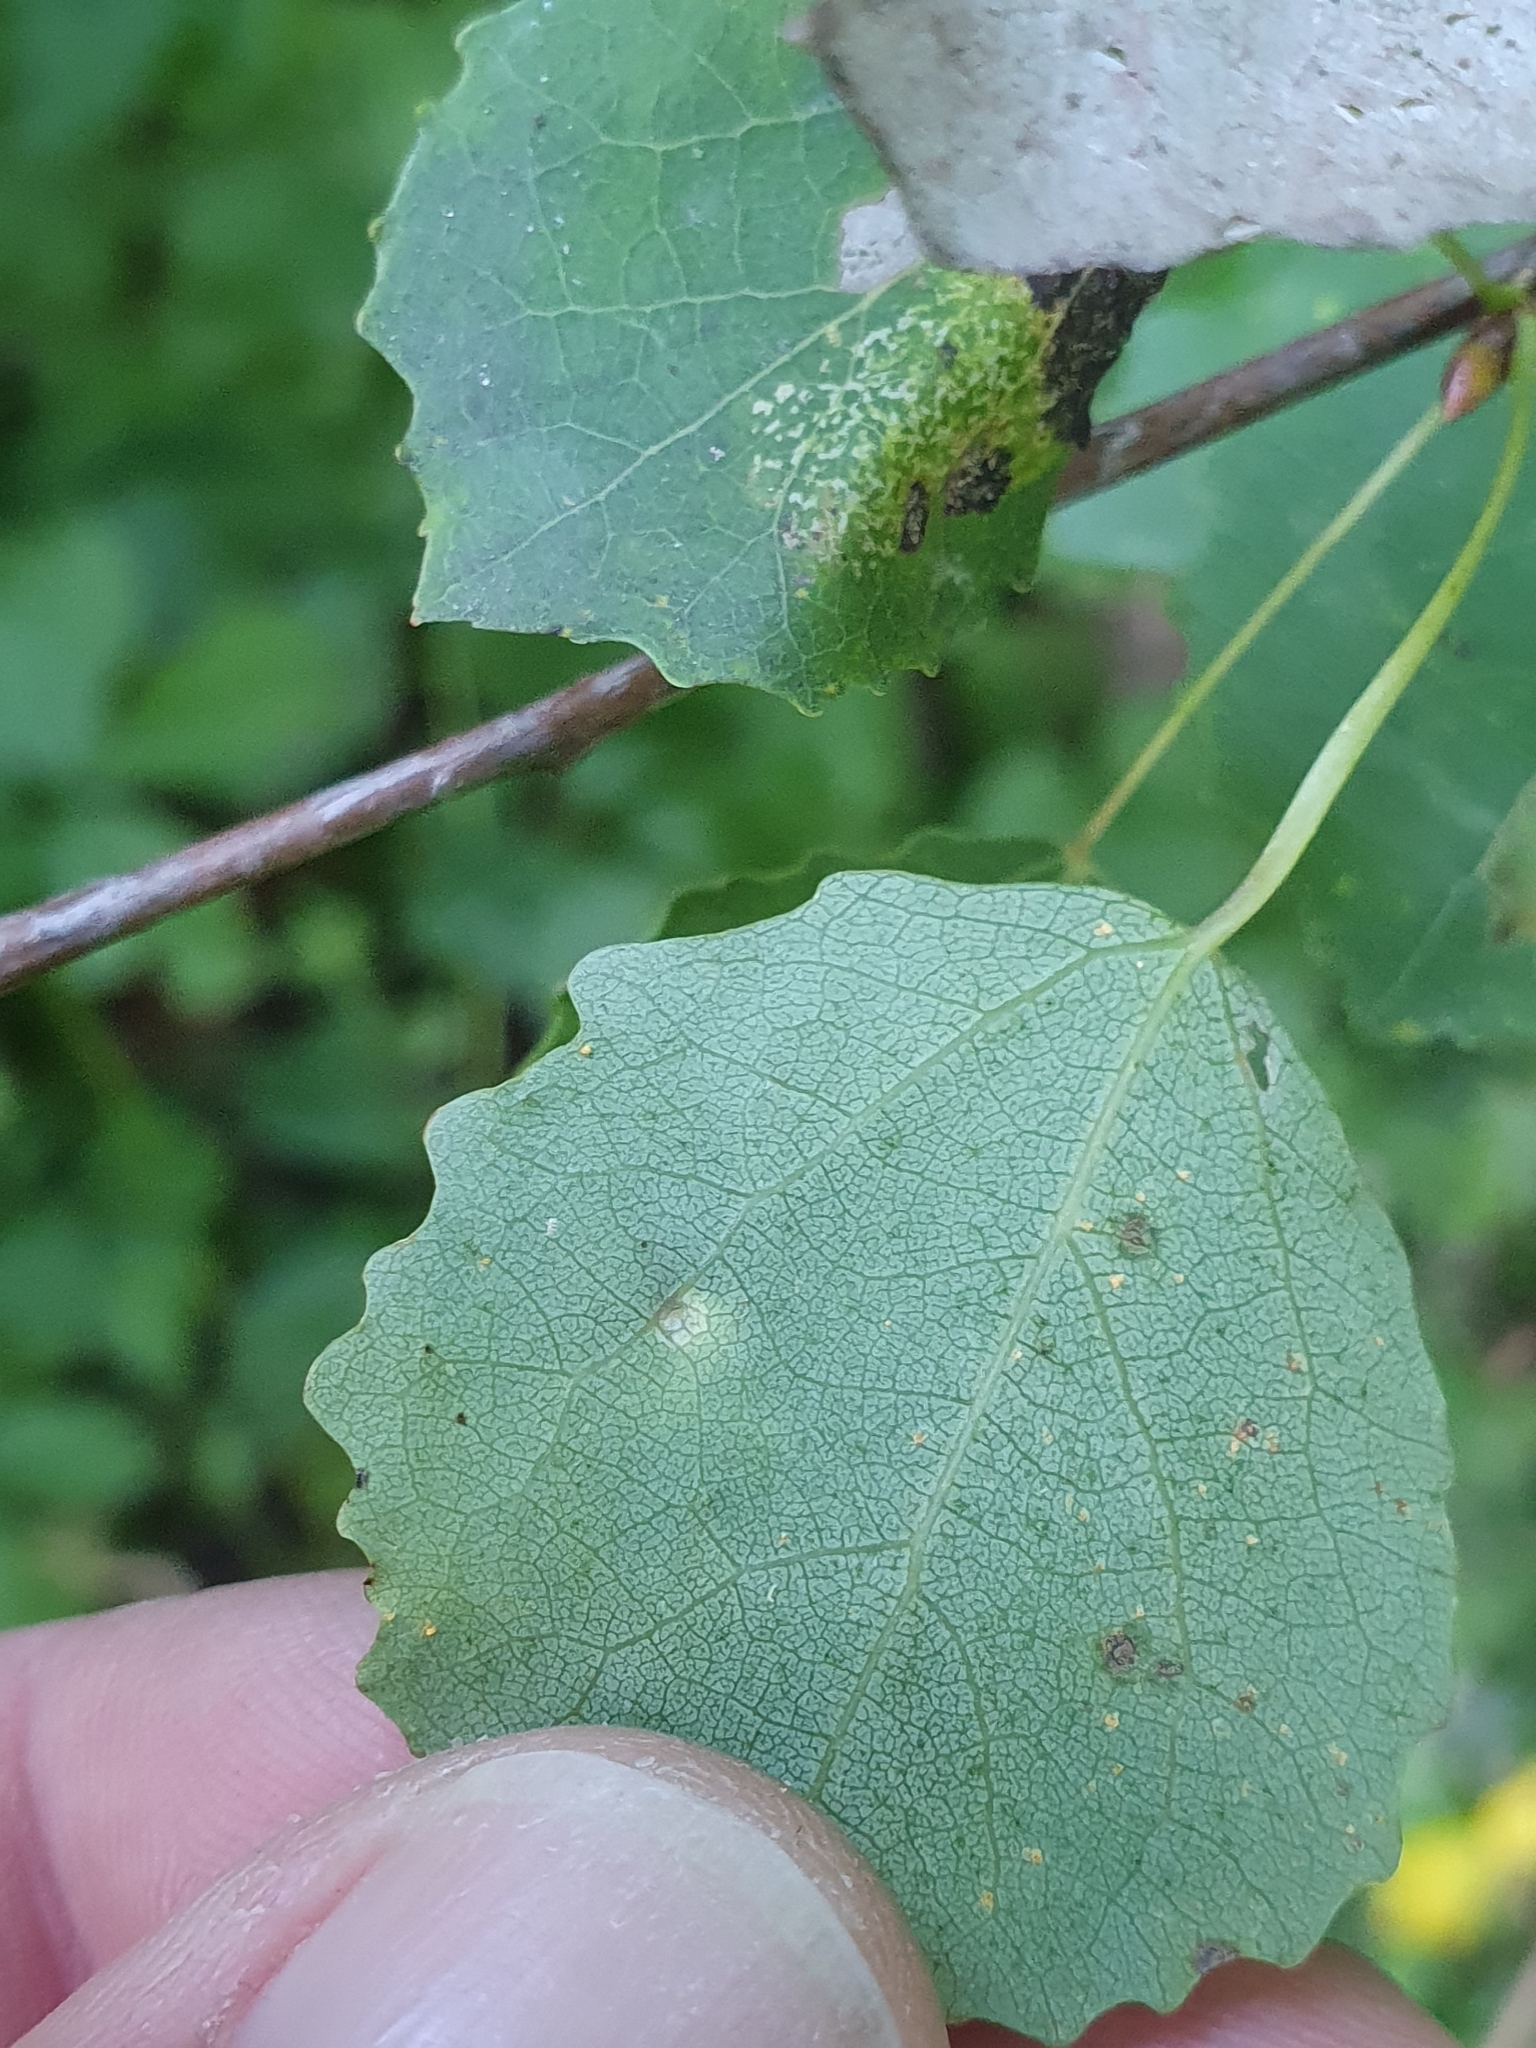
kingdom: Animalia
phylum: Arthropoda
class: Insecta
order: Diptera
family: Cecidomyiidae
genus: Harmandiola
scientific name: Harmandiola tremulae
